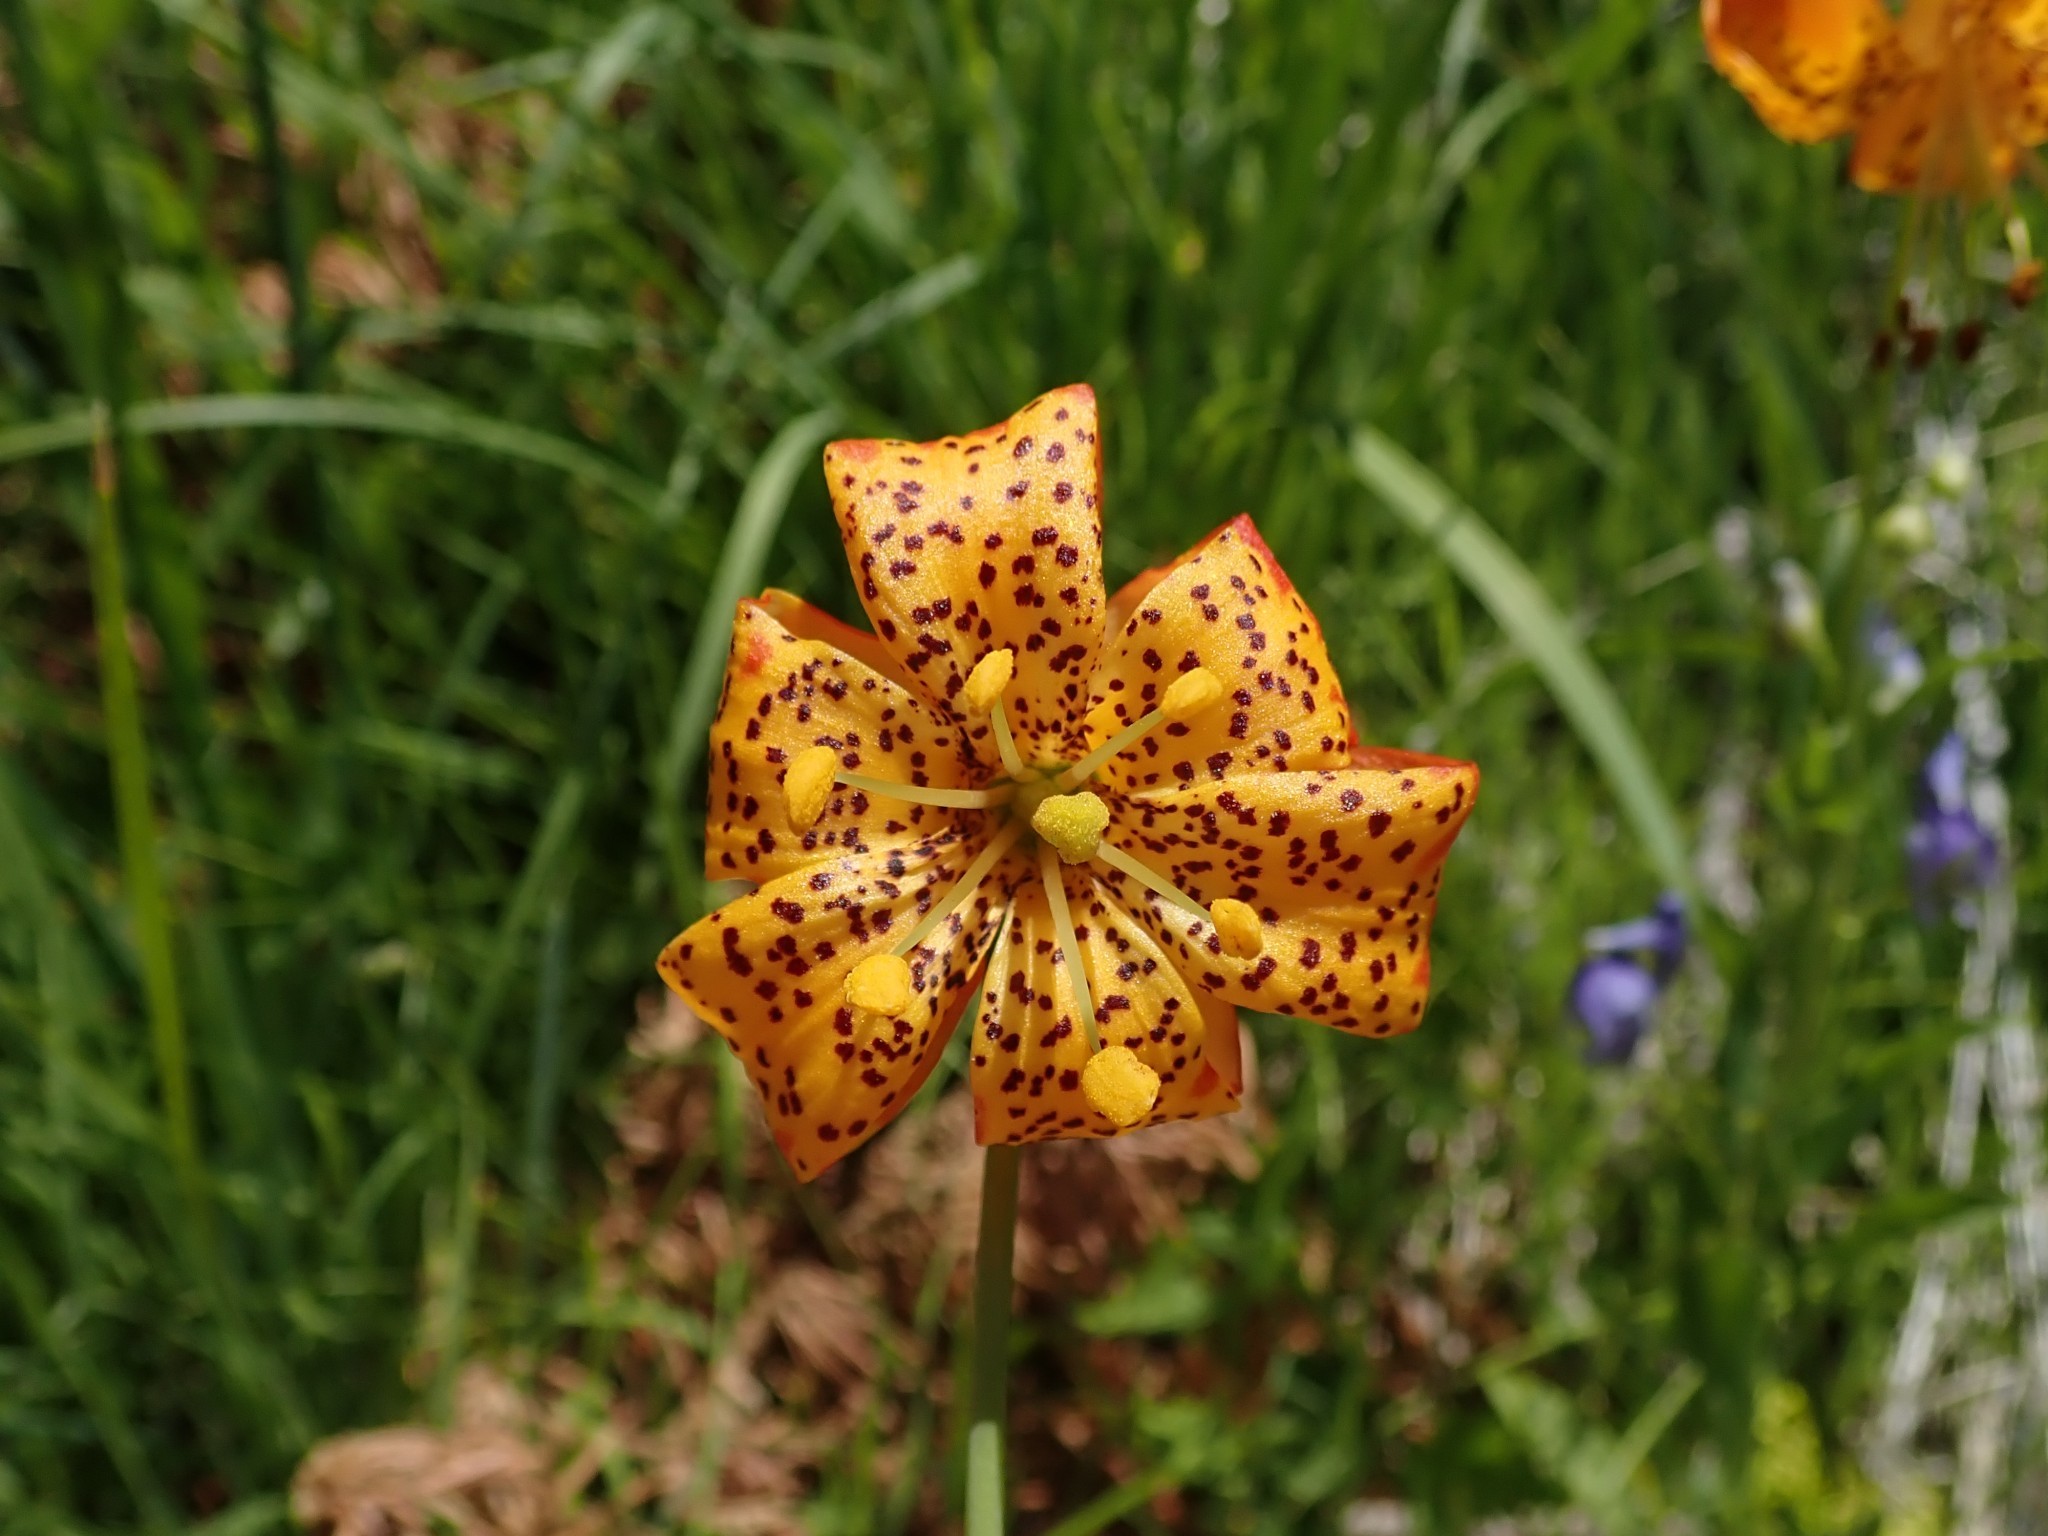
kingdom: Plantae
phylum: Tracheophyta
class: Liliopsida
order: Liliales
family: Liliaceae
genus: Lilium
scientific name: Lilium pardalinum
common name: Panther lily
